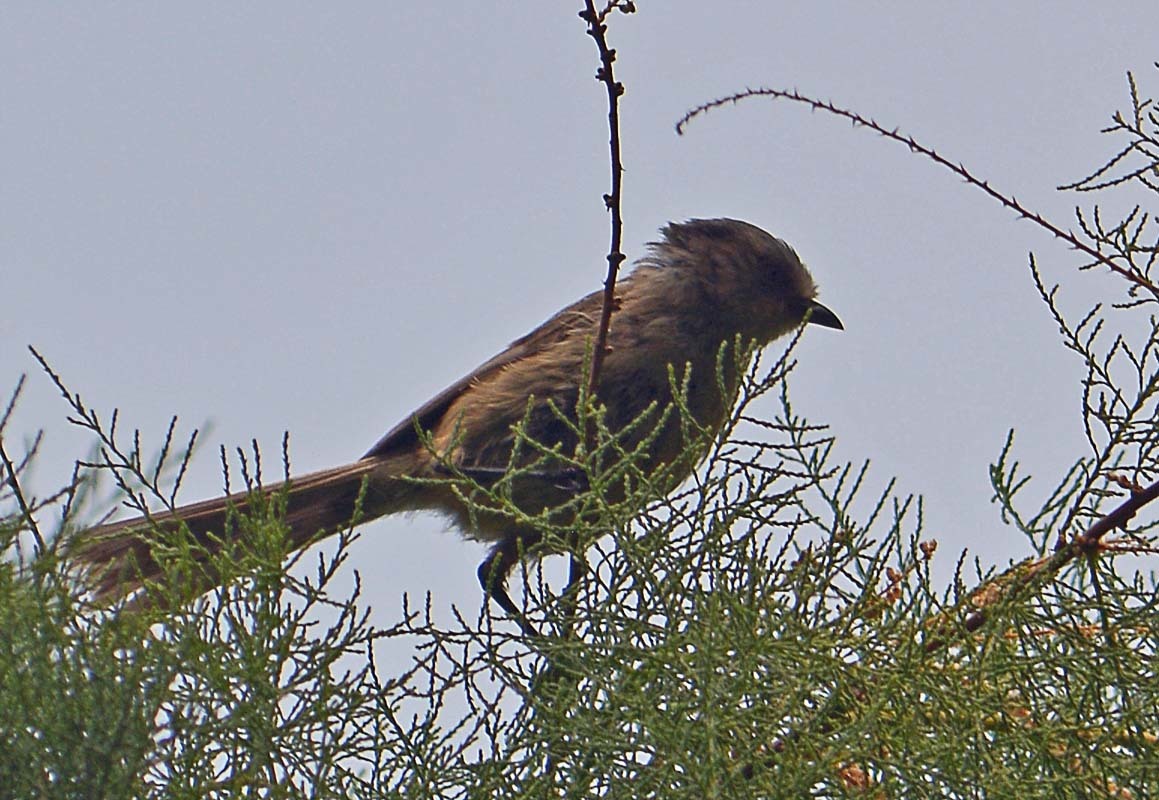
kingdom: Animalia
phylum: Chordata
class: Aves
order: Passeriformes
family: Aegithalidae
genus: Psaltriparus
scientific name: Psaltriparus minimus
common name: American bushtit
